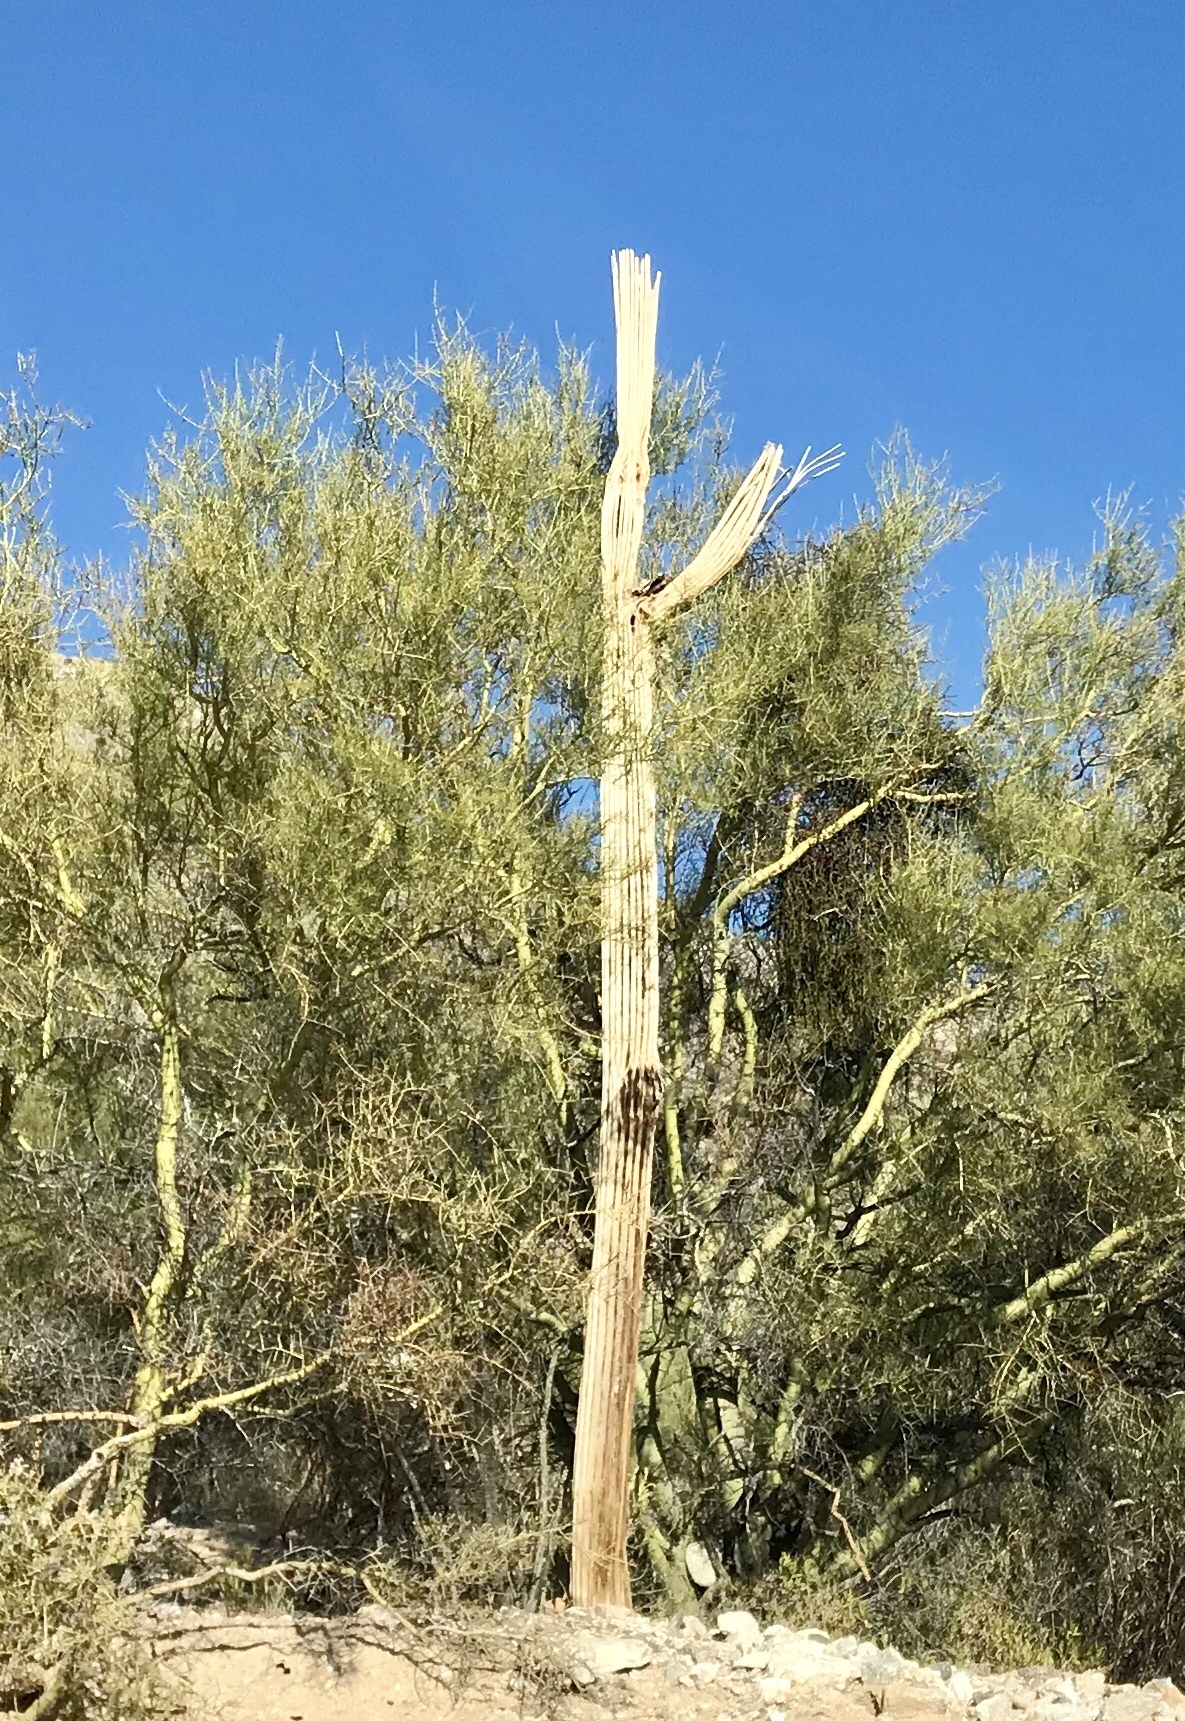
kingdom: Plantae
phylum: Tracheophyta
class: Magnoliopsida
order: Caryophyllales
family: Cactaceae
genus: Carnegiea
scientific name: Carnegiea gigantea
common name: Saguaro
